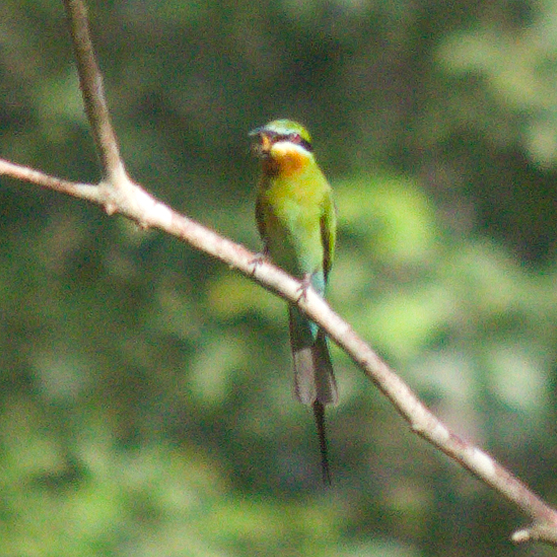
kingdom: Animalia
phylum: Chordata
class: Aves
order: Coraciiformes
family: Meropidae
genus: Merops
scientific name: Merops philippinus
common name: Blue-tailed bee-eater
